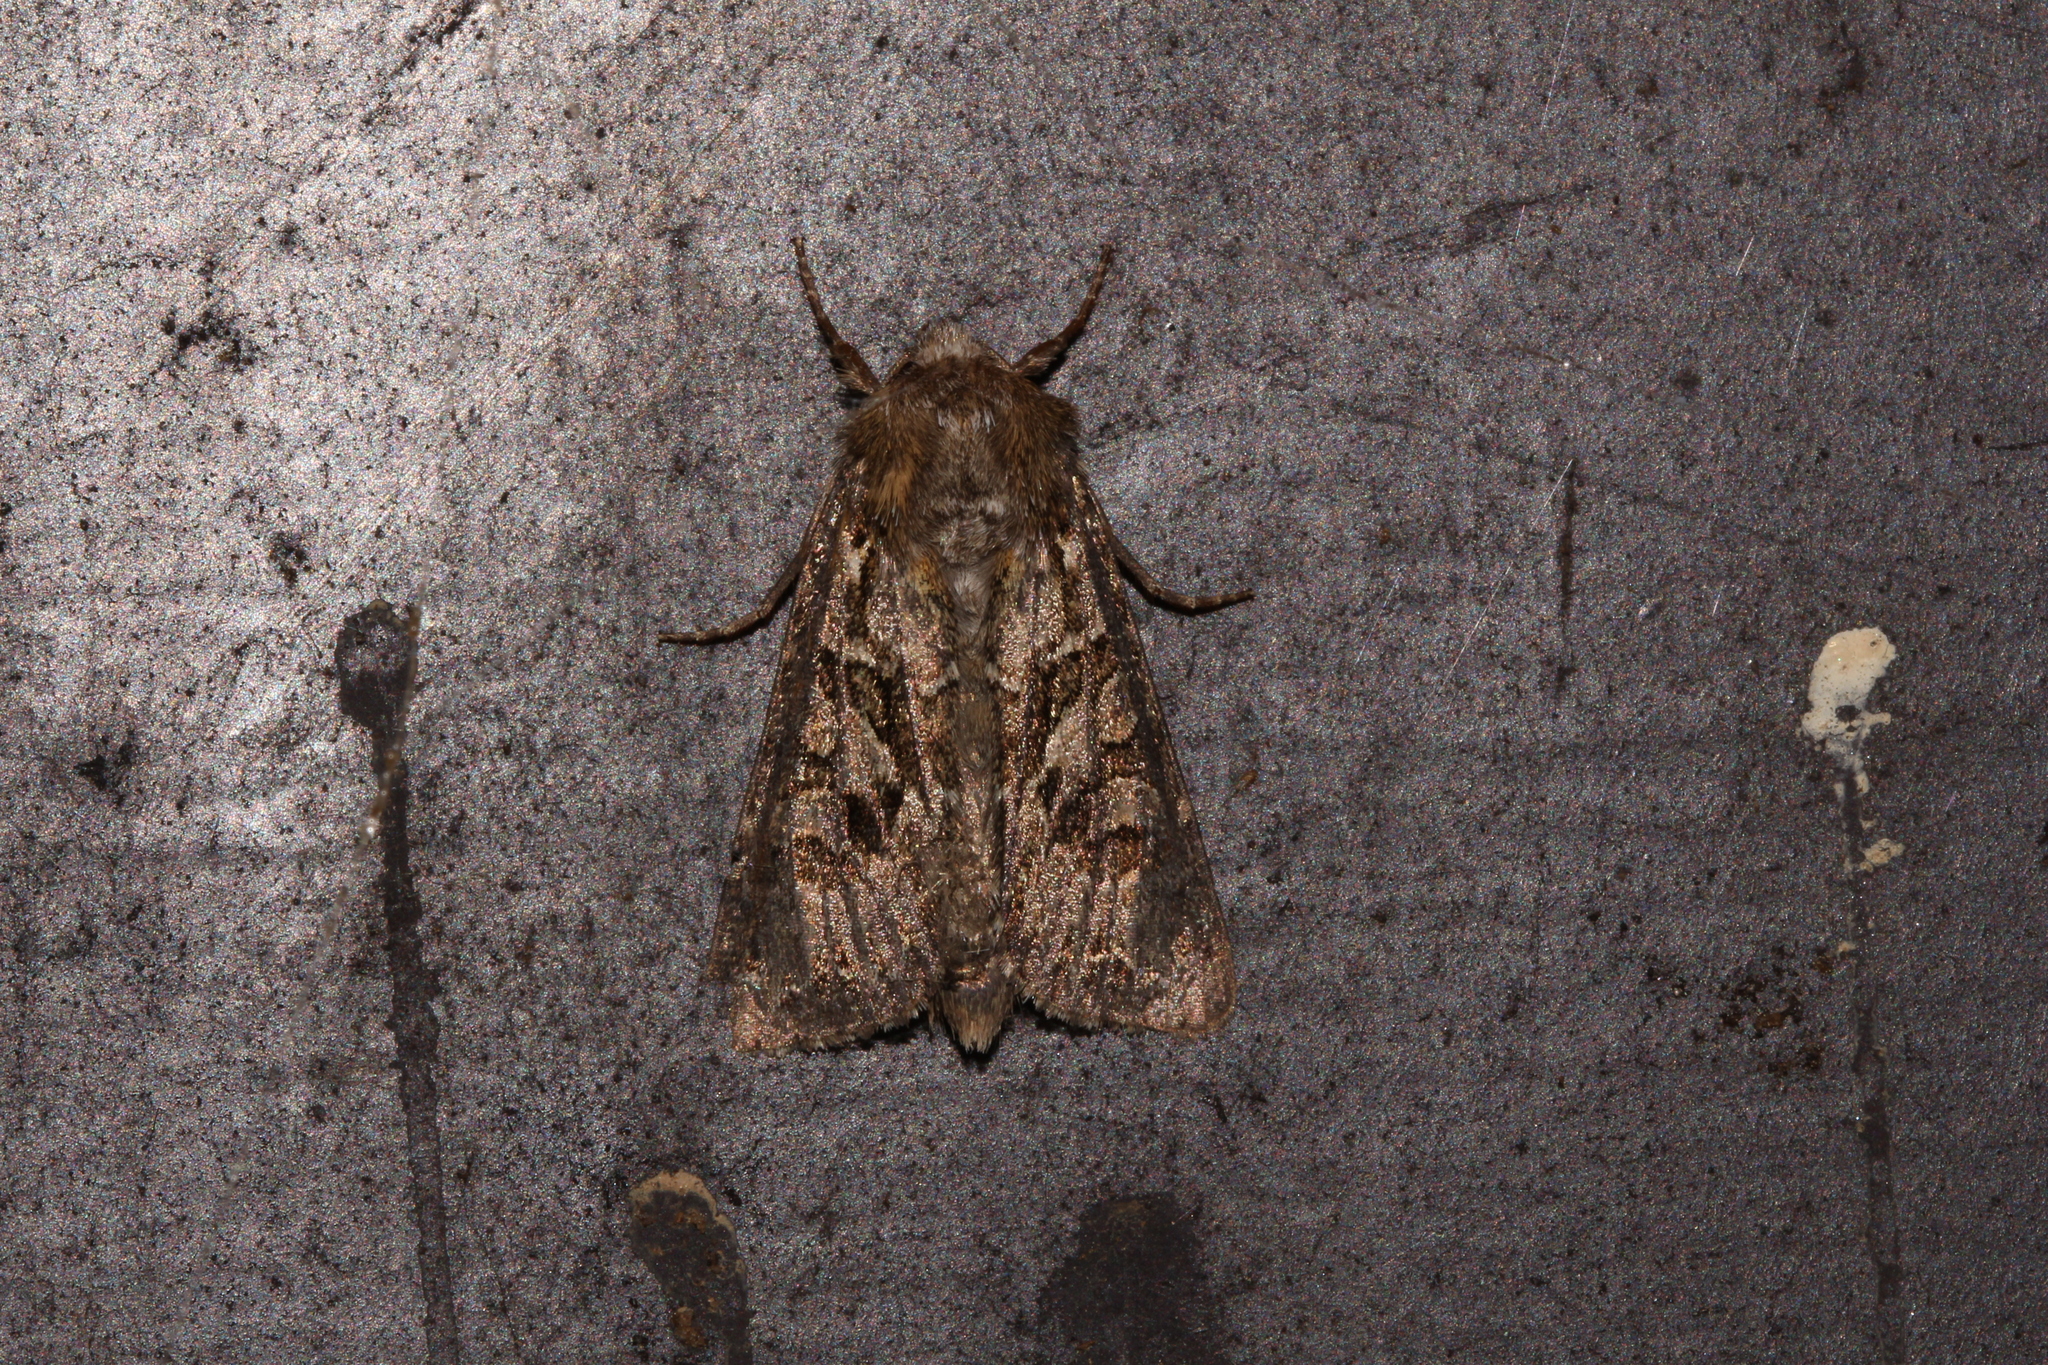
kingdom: Animalia
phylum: Arthropoda
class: Insecta
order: Lepidoptera
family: Noctuidae
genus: Luperina
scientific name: Luperina testacea
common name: Flounced rustic
